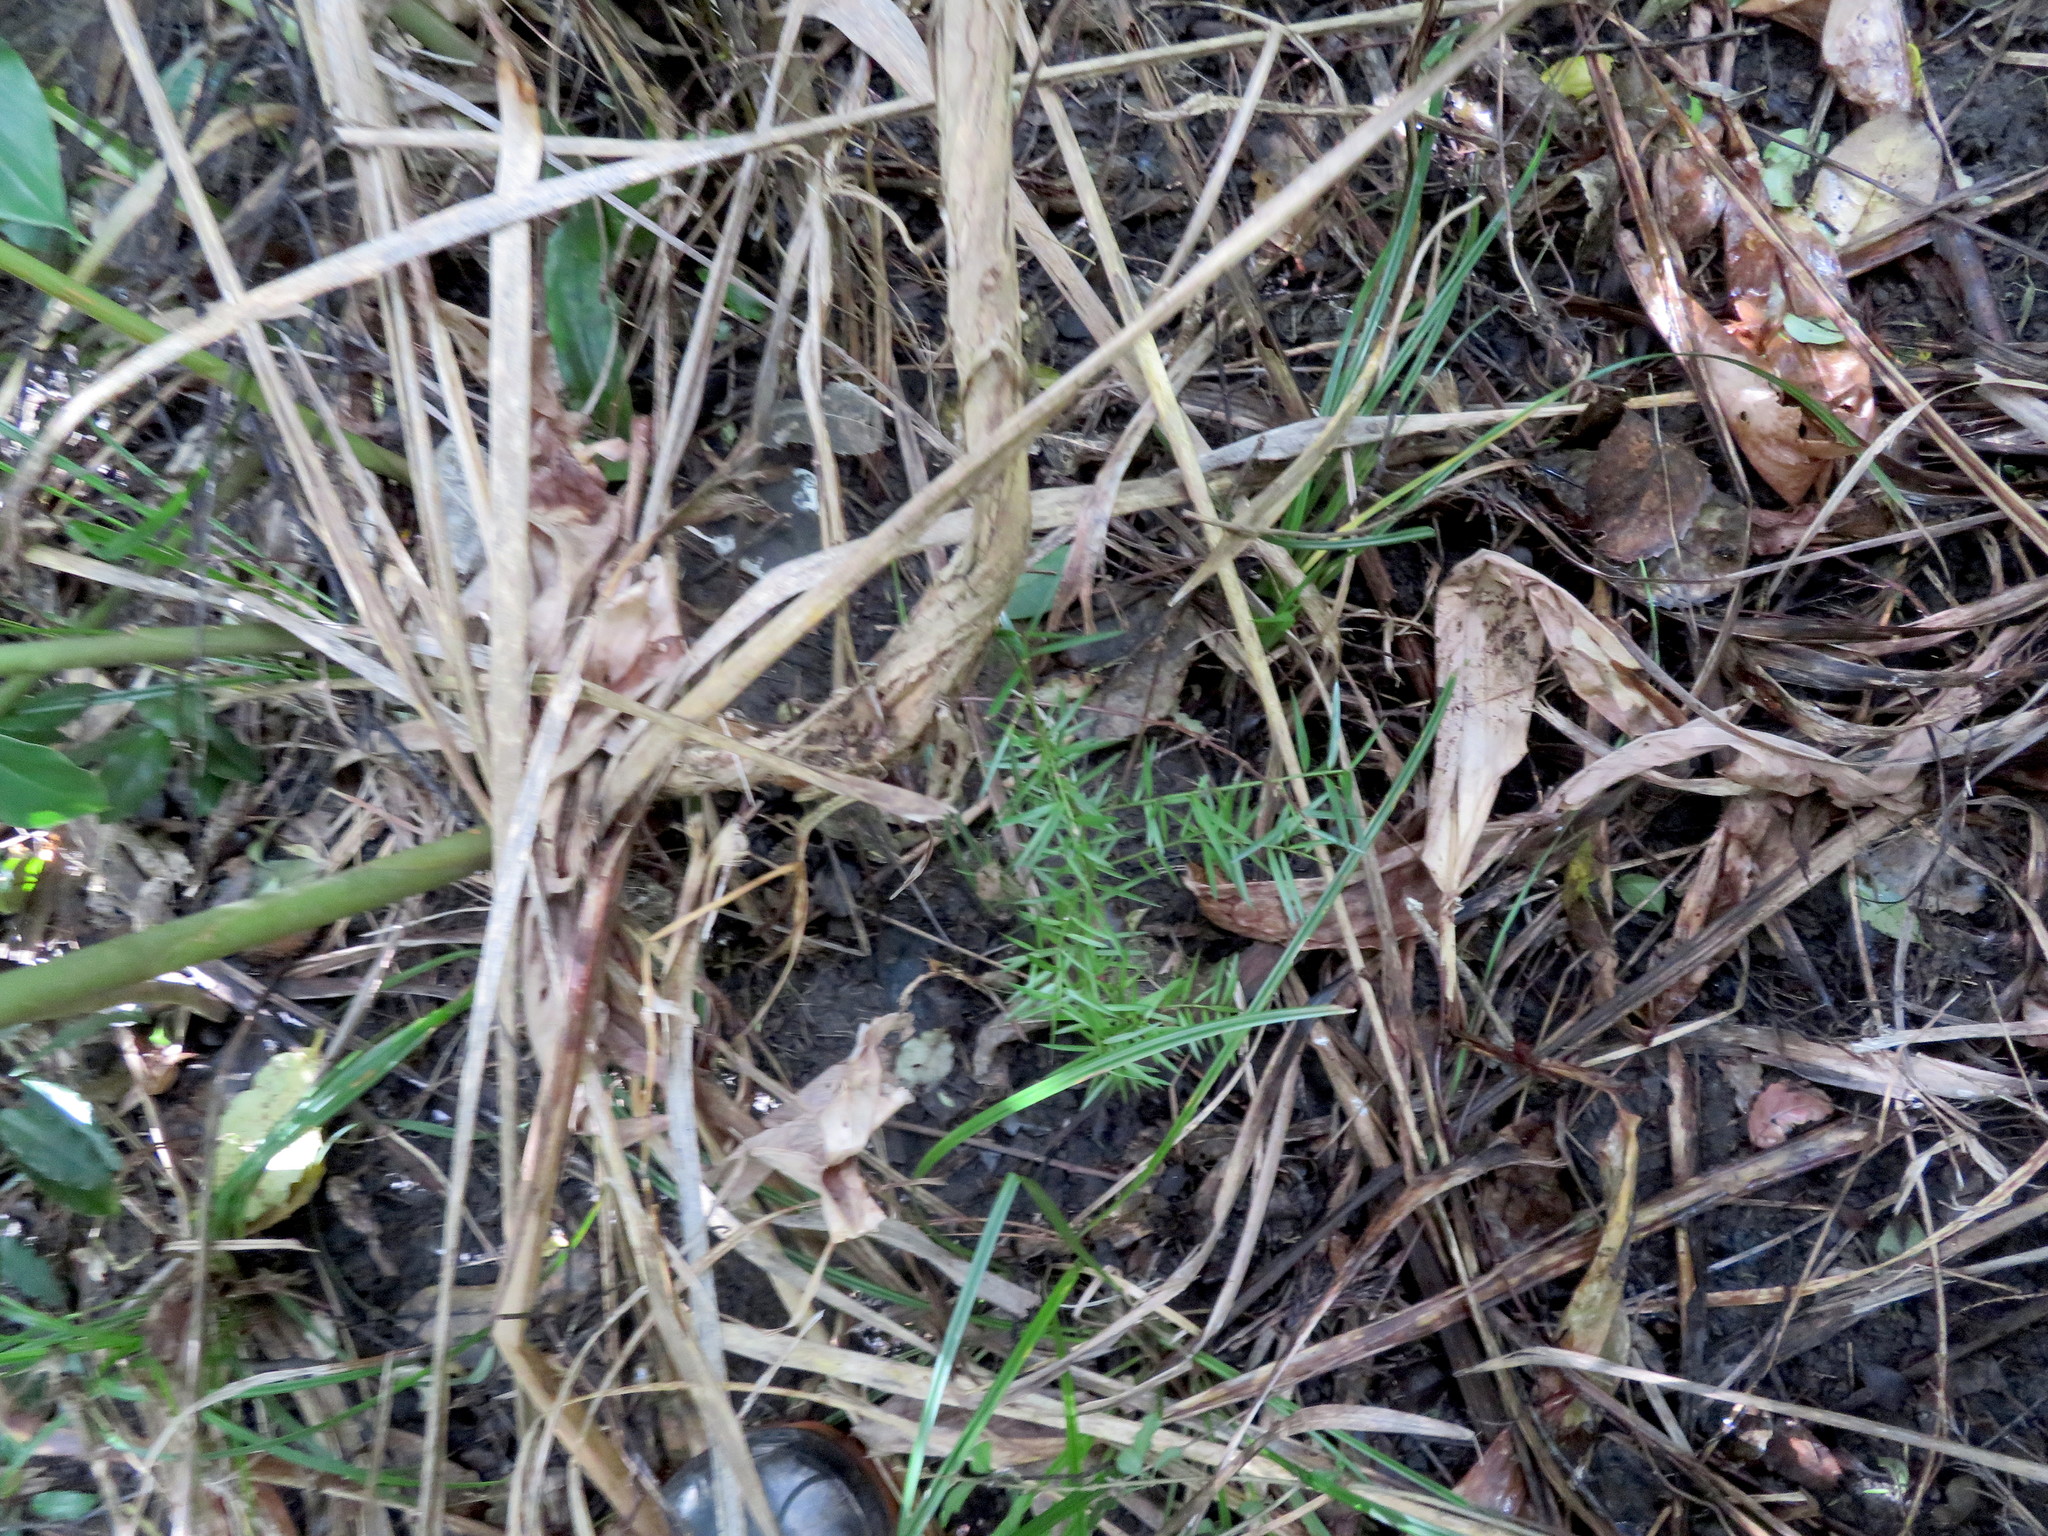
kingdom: Plantae
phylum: Tracheophyta
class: Pinopsida
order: Pinales
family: Podocarpaceae
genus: Podocarpus
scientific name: Podocarpus totara
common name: Totara
